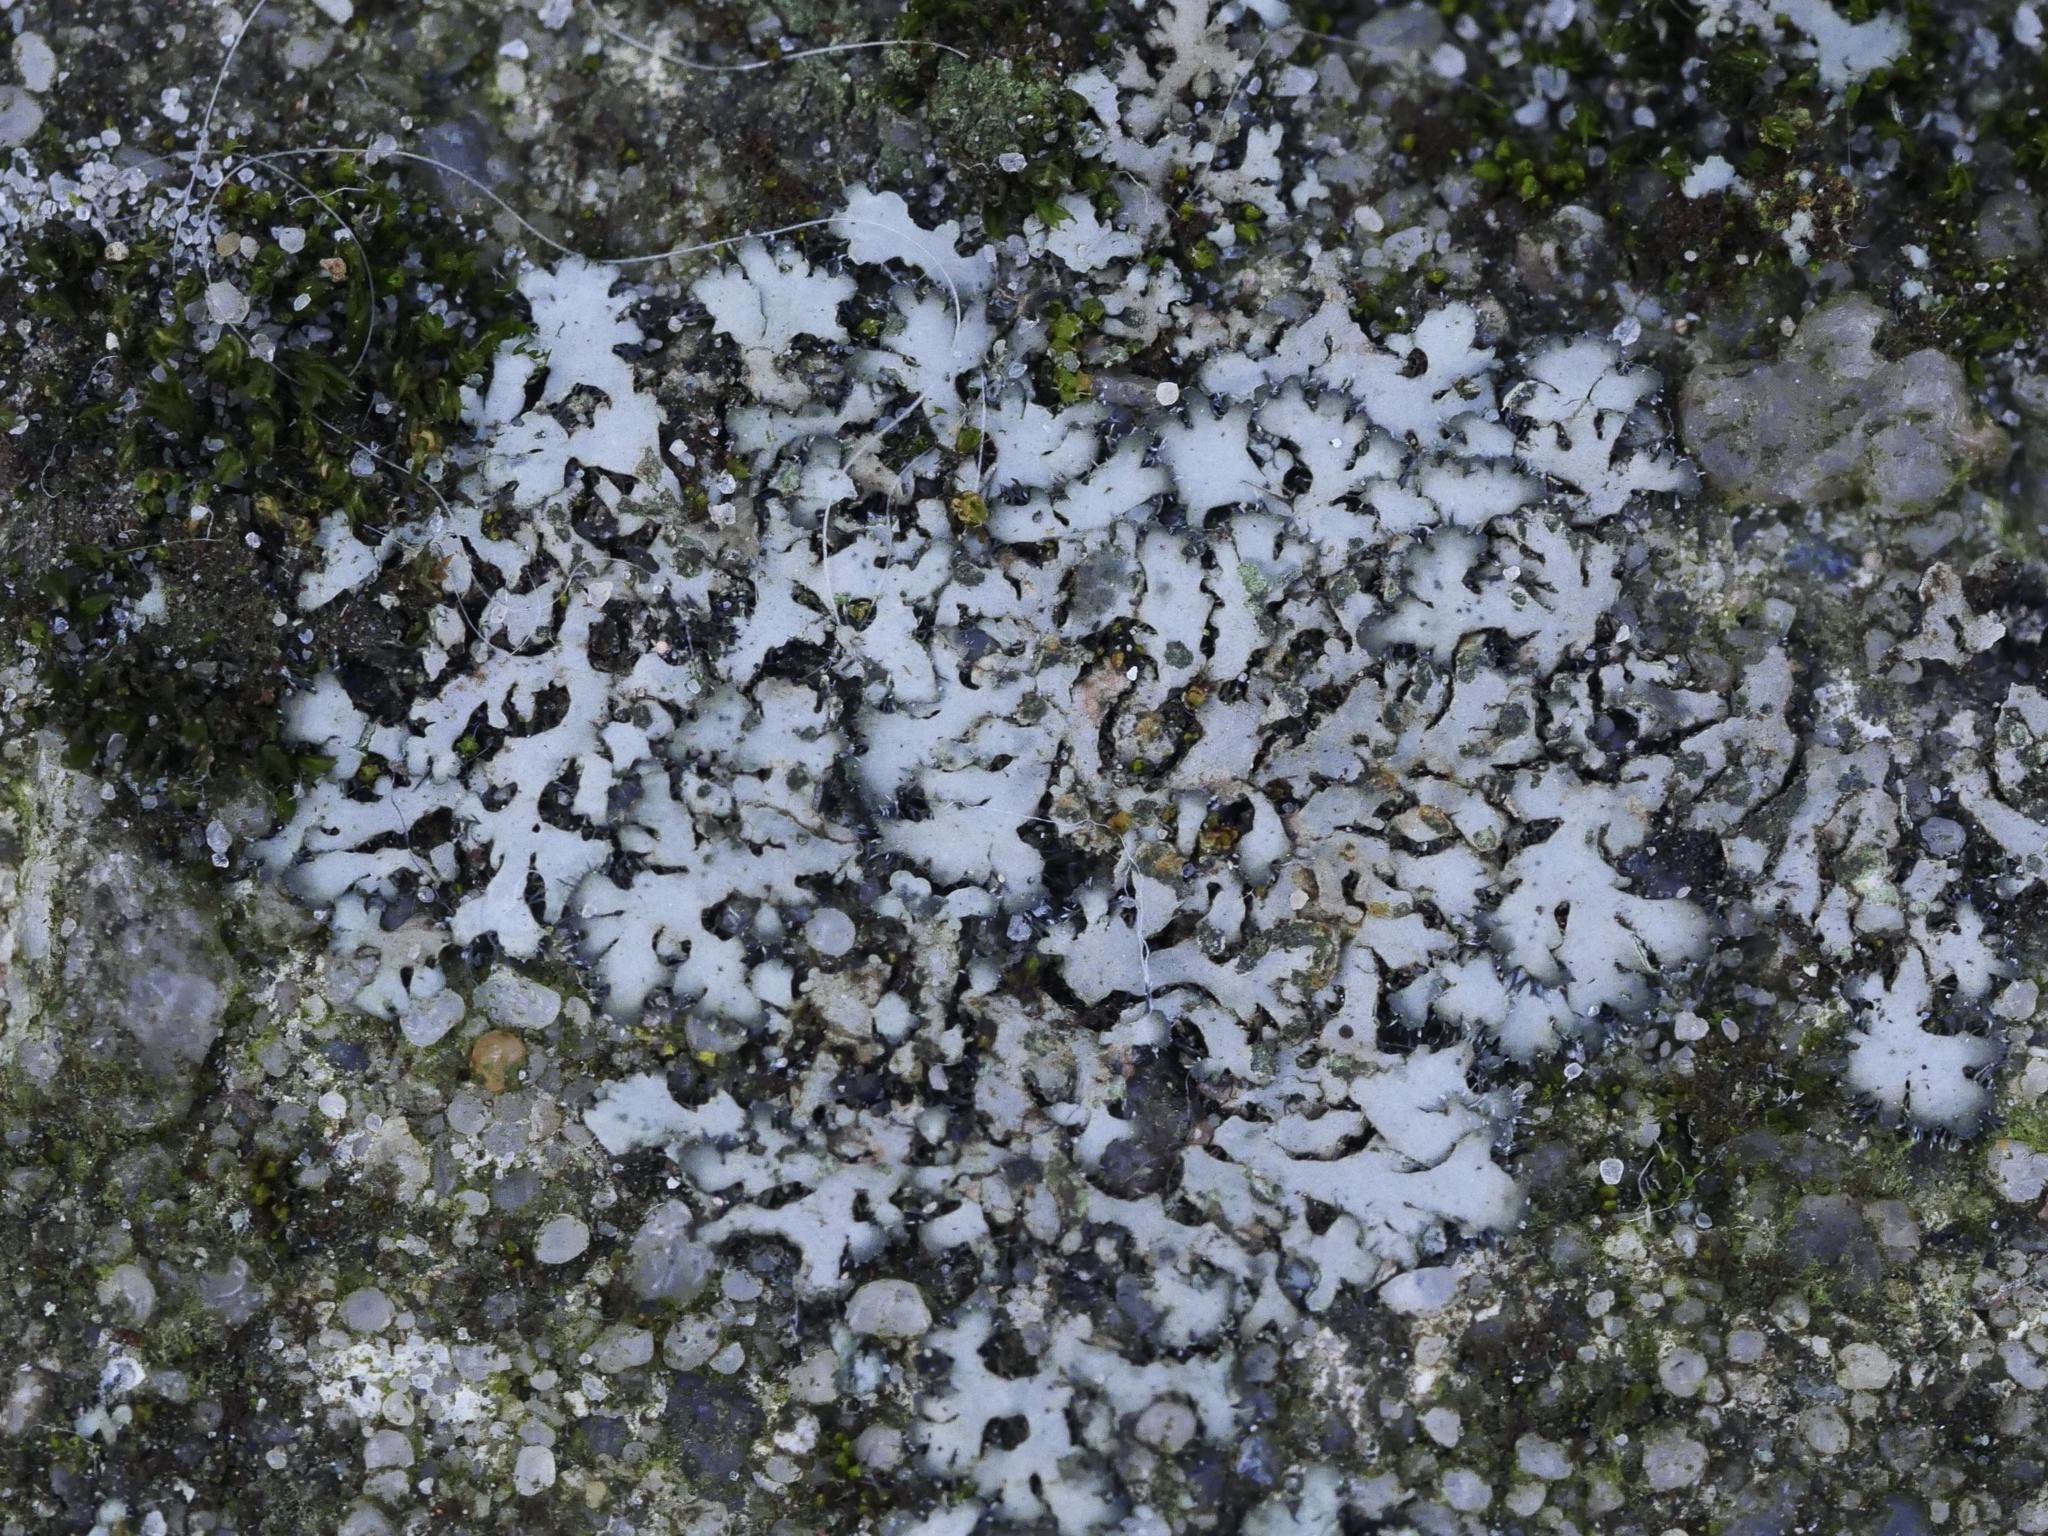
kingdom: Fungi
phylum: Ascomycota
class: Lecanoromycetes
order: Caliciales
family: Physciaceae
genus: Phaeophyscia
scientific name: Phaeophyscia orbicularis
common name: Mealy shadow lichen
